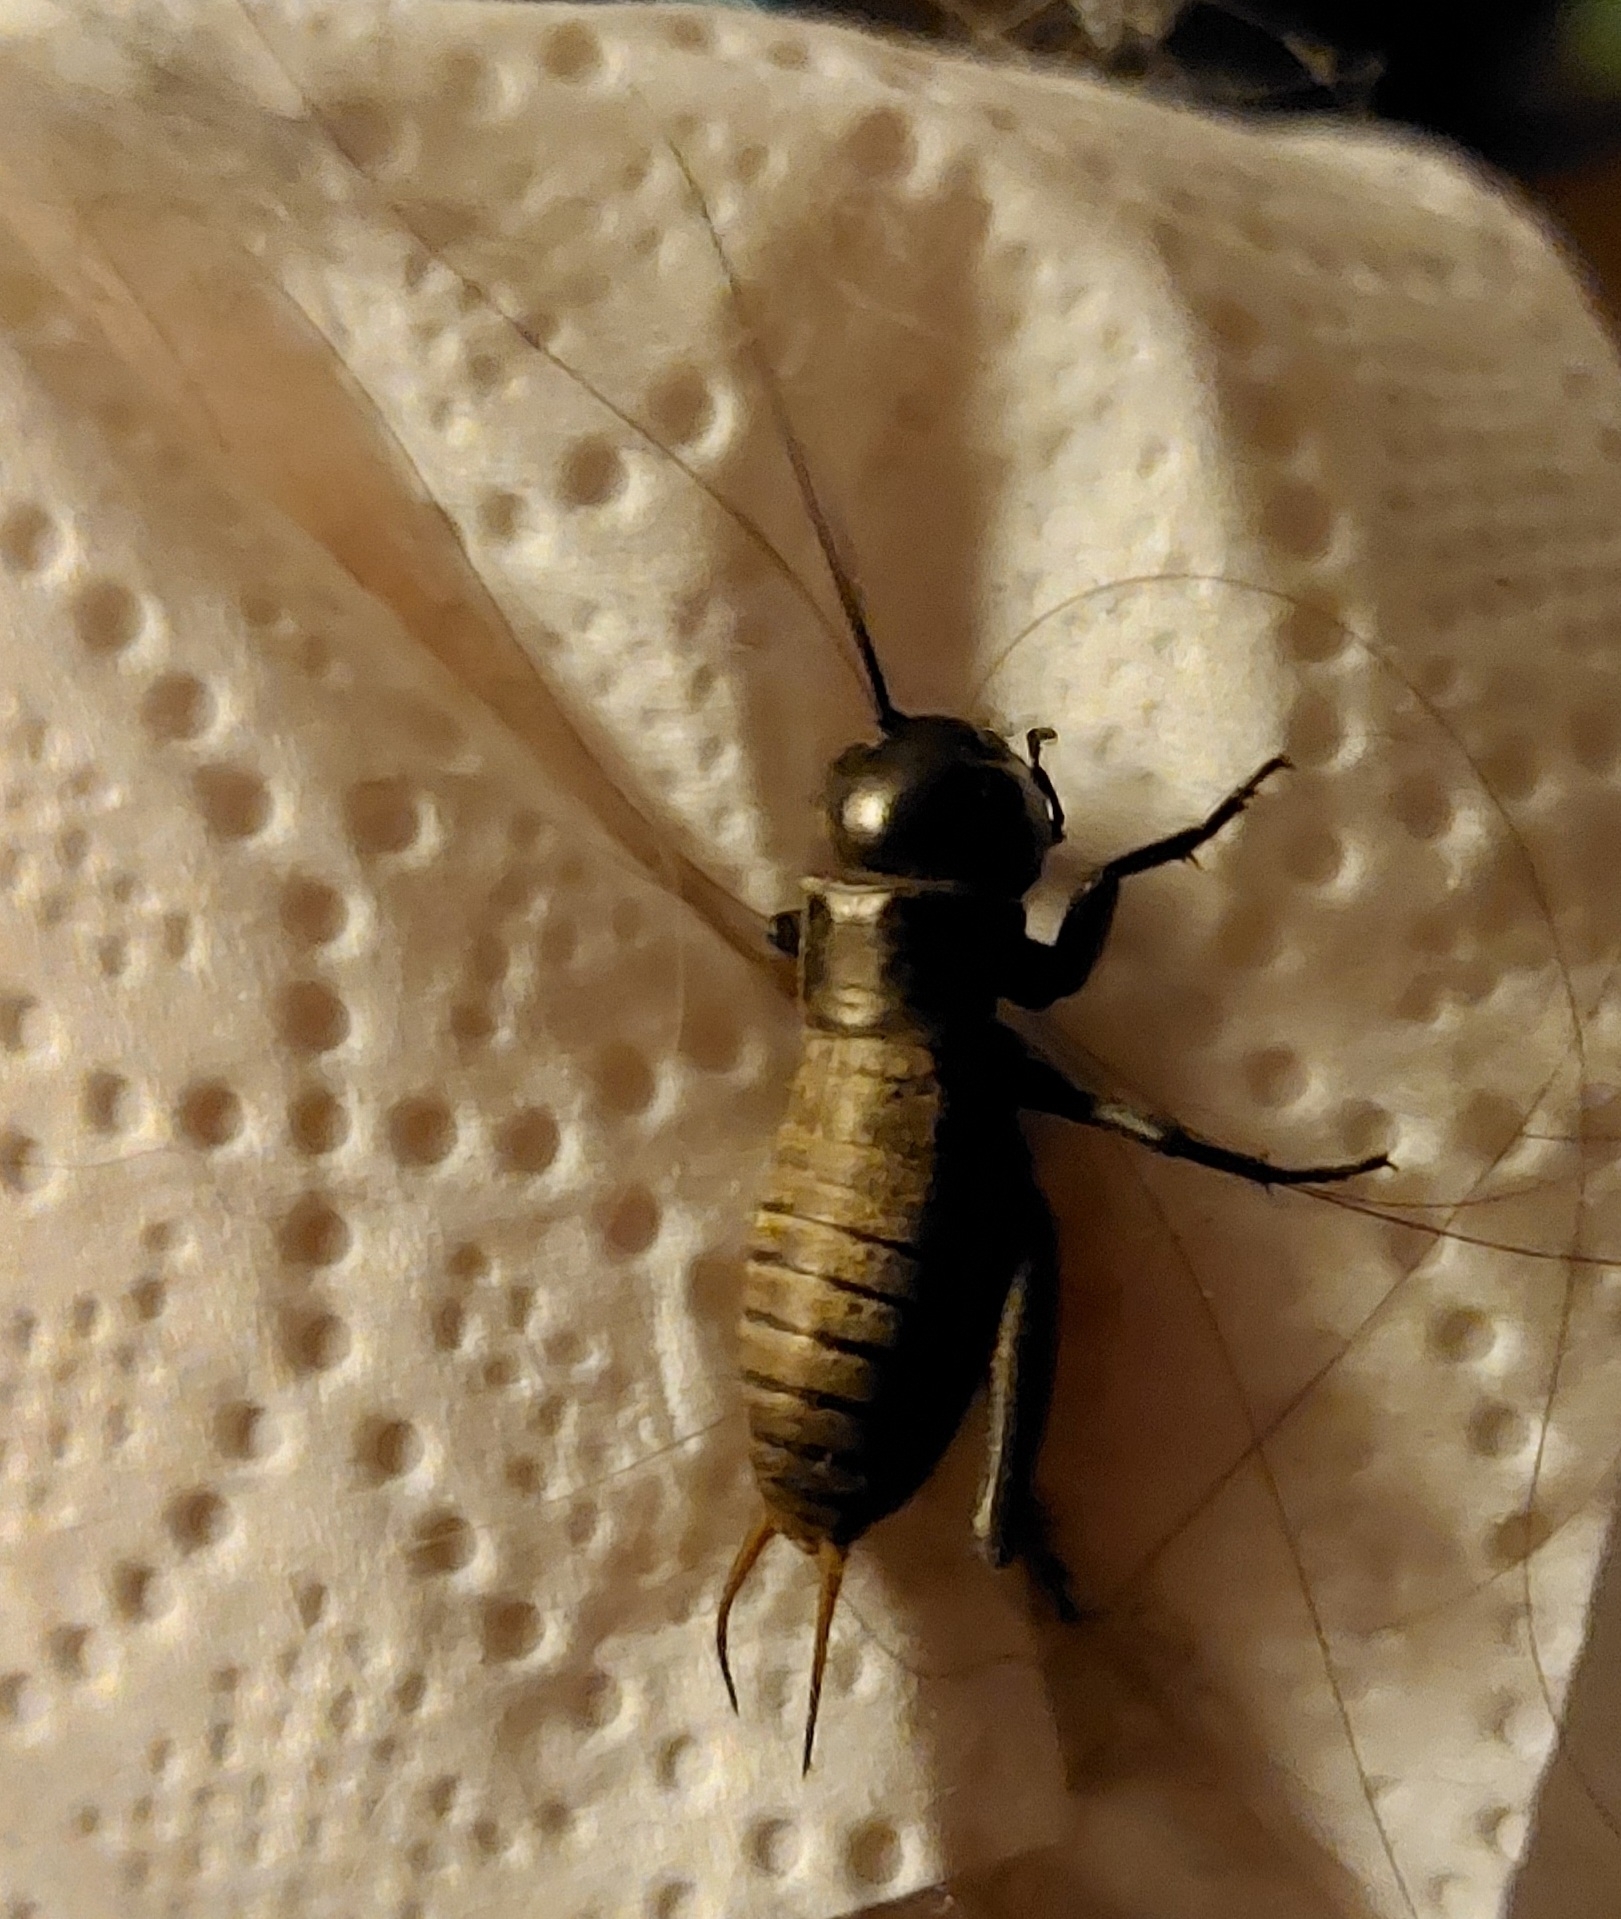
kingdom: Animalia
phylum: Arthropoda
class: Insecta
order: Orthoptera
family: Gryllidae
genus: Gryllus
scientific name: Gryllus campestris
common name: Field cricket
